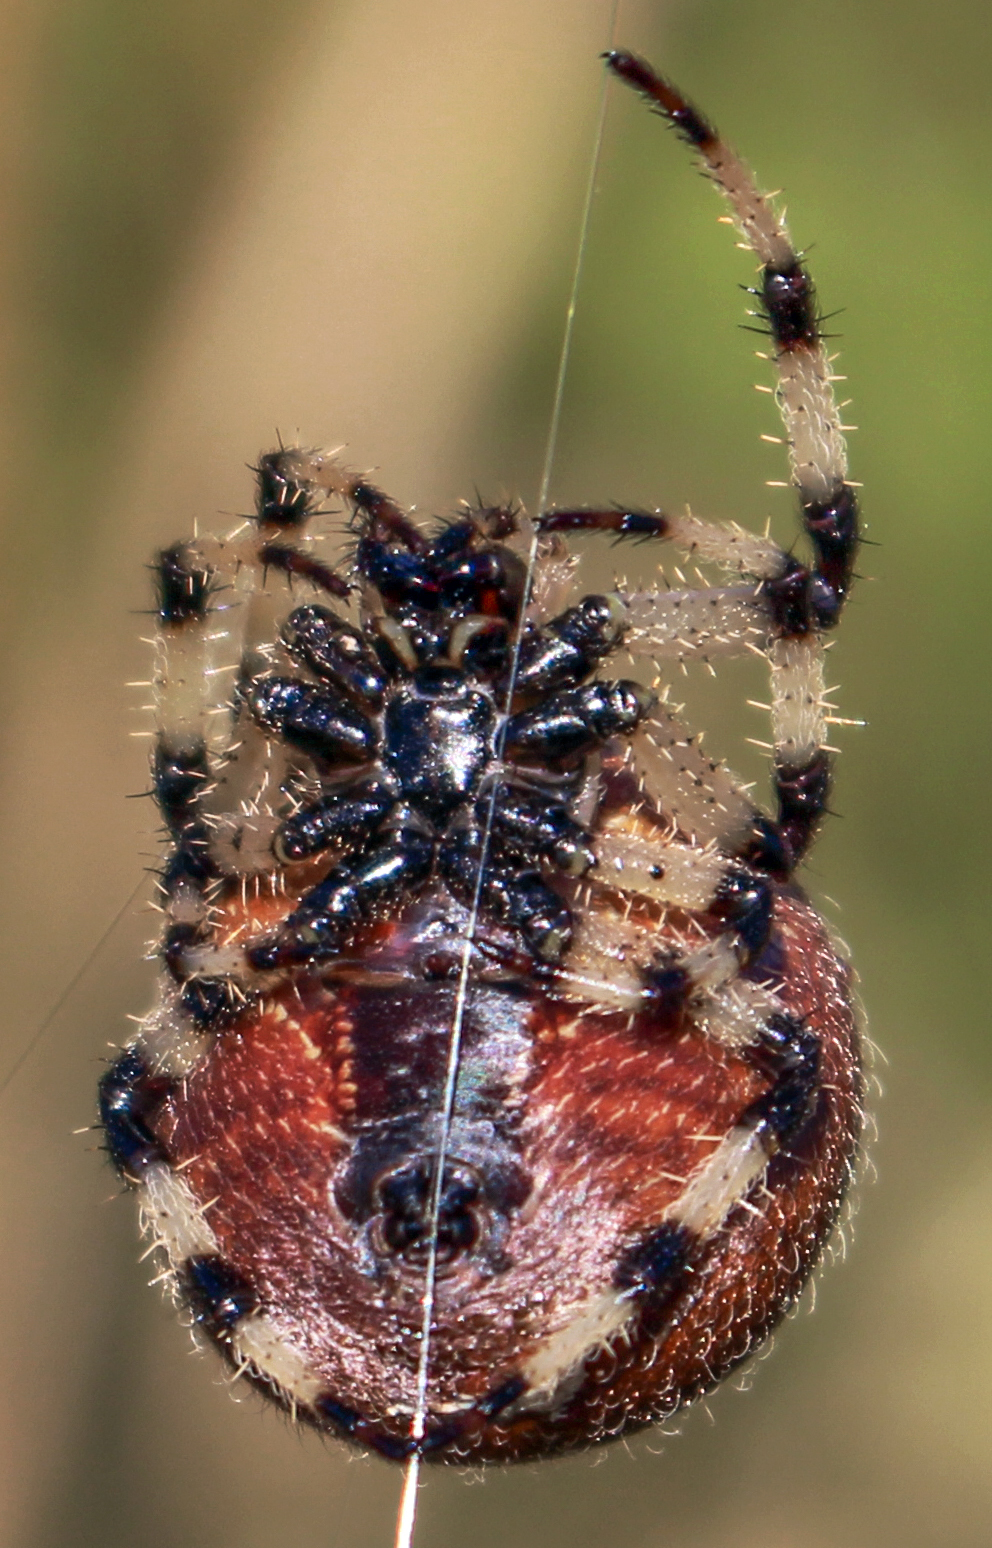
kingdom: Animalia
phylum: Arthropoda
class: Arachnida
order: Araneae
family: Araneidae
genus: Araneus
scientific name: Araneus trifolium
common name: Shamrock orbweaver
